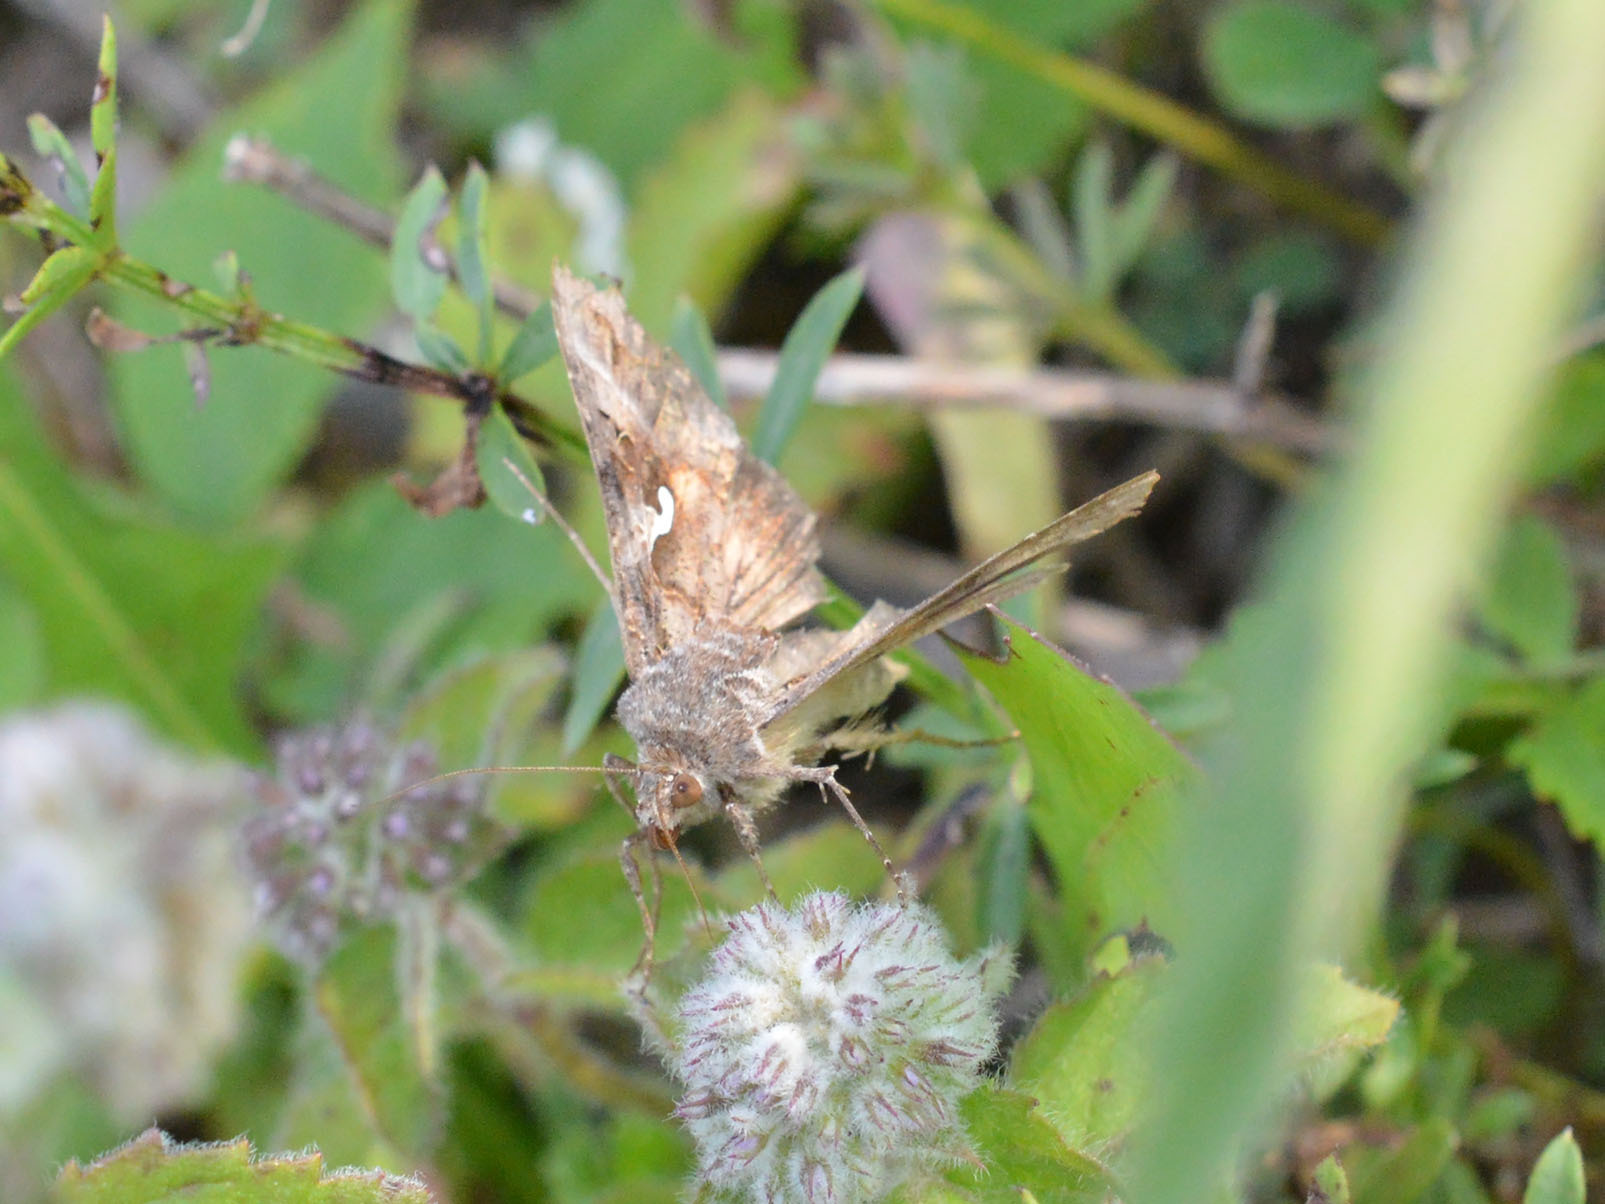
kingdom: Animalia
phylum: Arthropoda
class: Insecta
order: Lepidoptera
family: Noctuidae
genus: Autographa
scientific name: Autographa gamma
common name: Silver y
